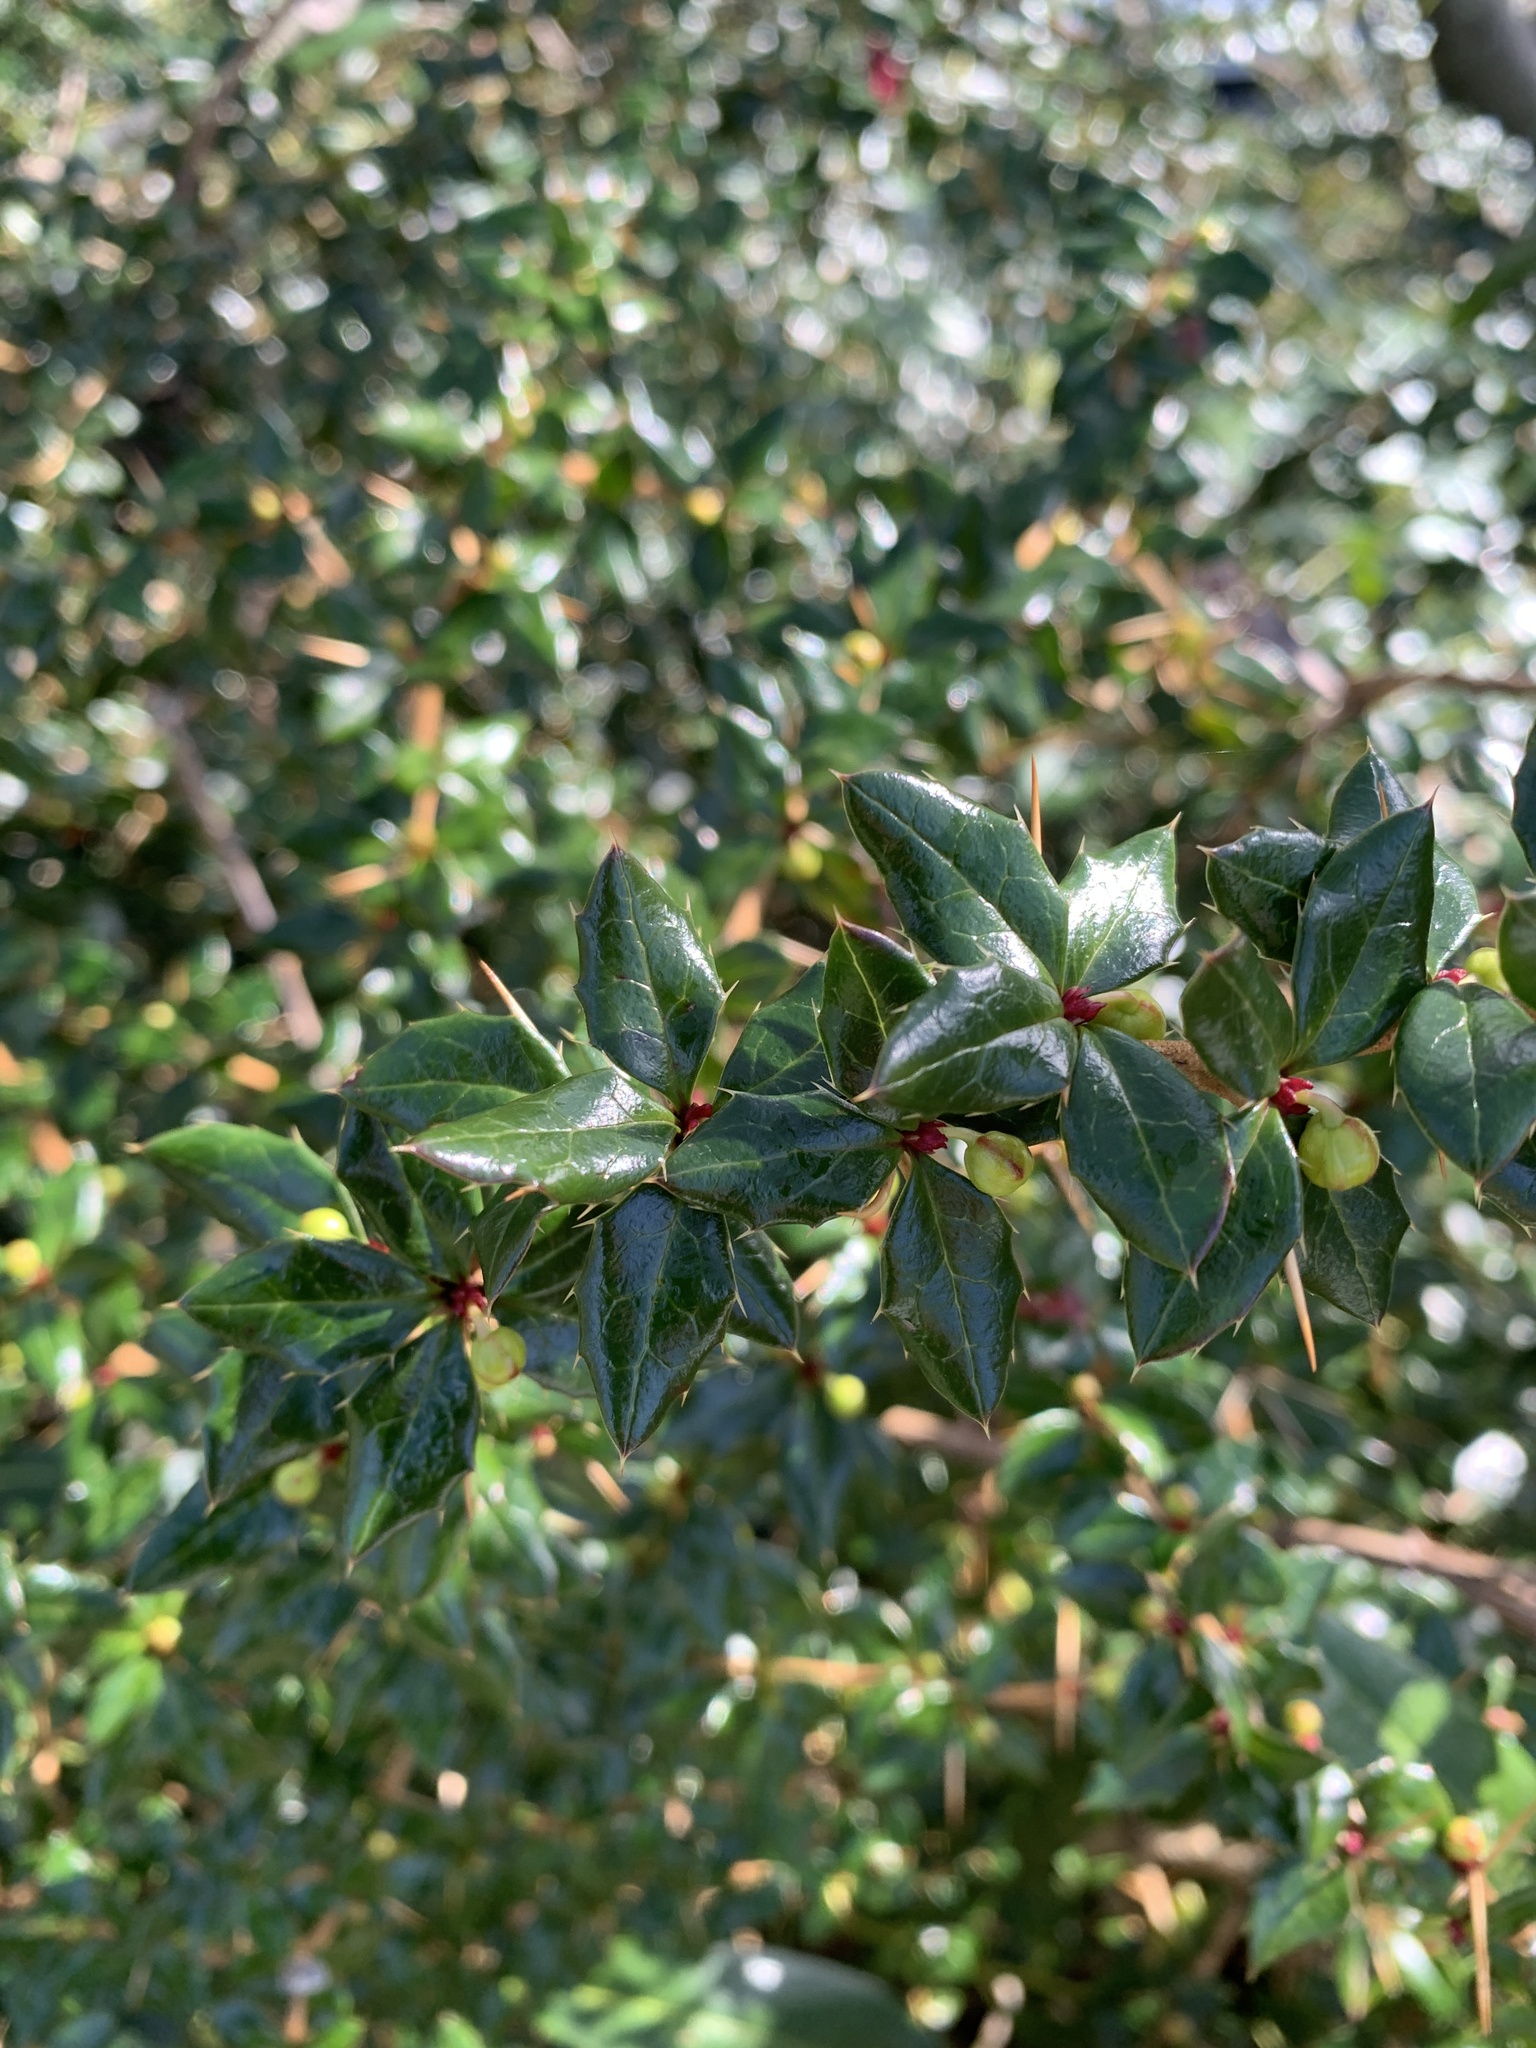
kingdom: Plantae
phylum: Tracheophyta
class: Magnoliopsida
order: Ranunculales
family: Berberidaceae
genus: Berberis
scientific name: Berberis darwinii
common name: Darwin's barberry
